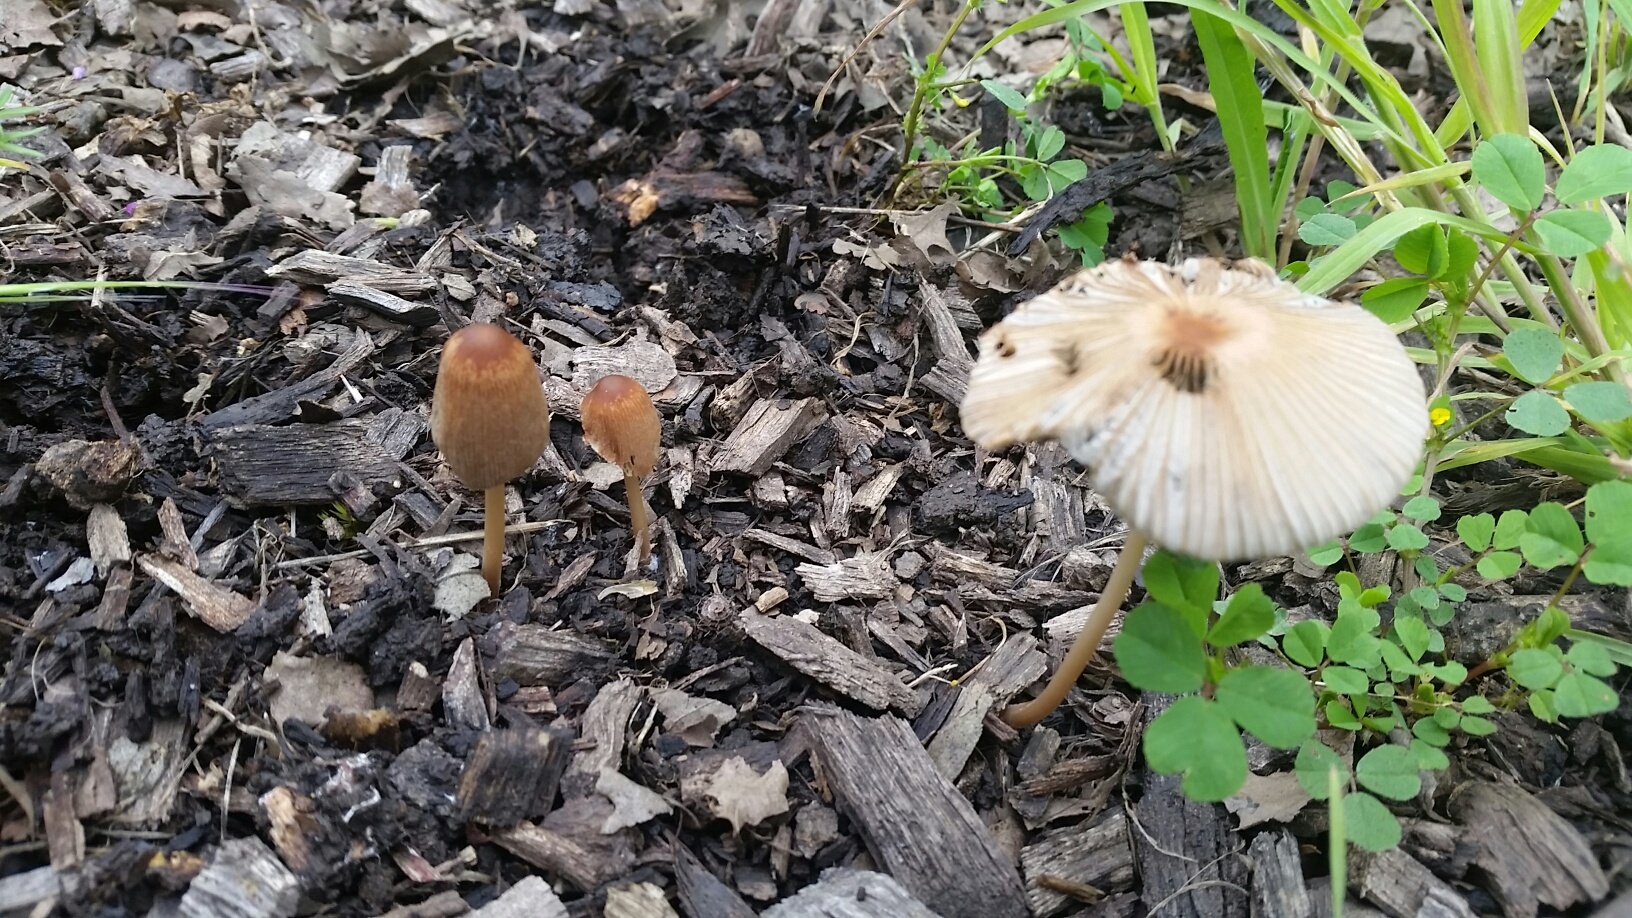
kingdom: Fungi
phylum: Basidiomycota
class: Agaricomycetes
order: Agaricales
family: Psathyrellaceae
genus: Parasola
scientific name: Parasola auricoma
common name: Goldenhaired inkcap
